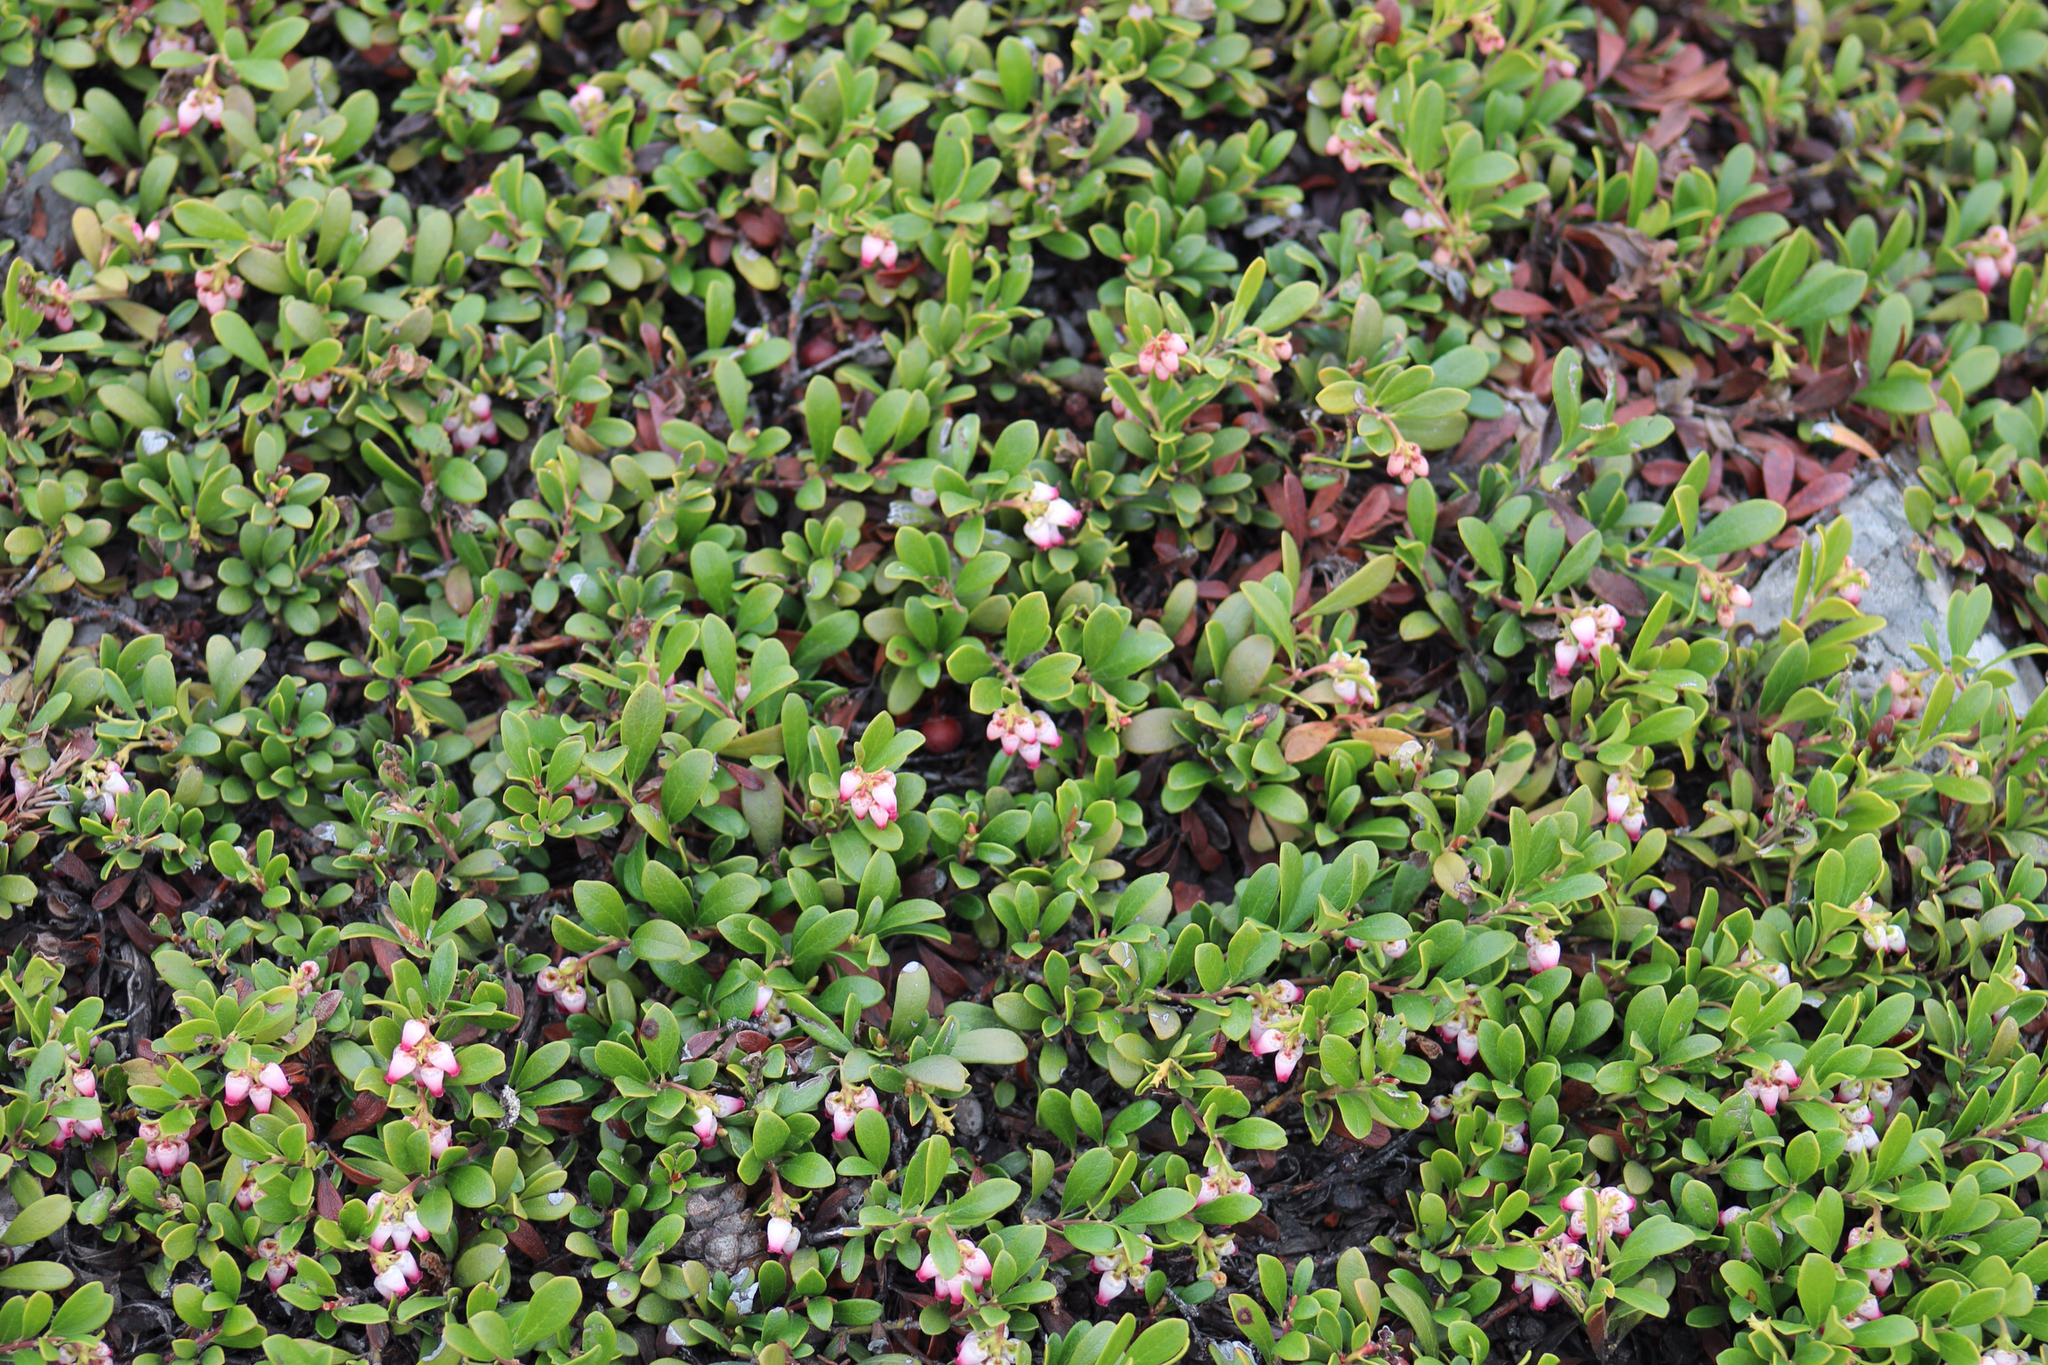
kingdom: Plantae
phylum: Tracheophyta
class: Magnoliopsida
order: Ericales
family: Ericaceae
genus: Arctostaphylos
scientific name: Arctostaphylos uva-ursi
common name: Bearberry
